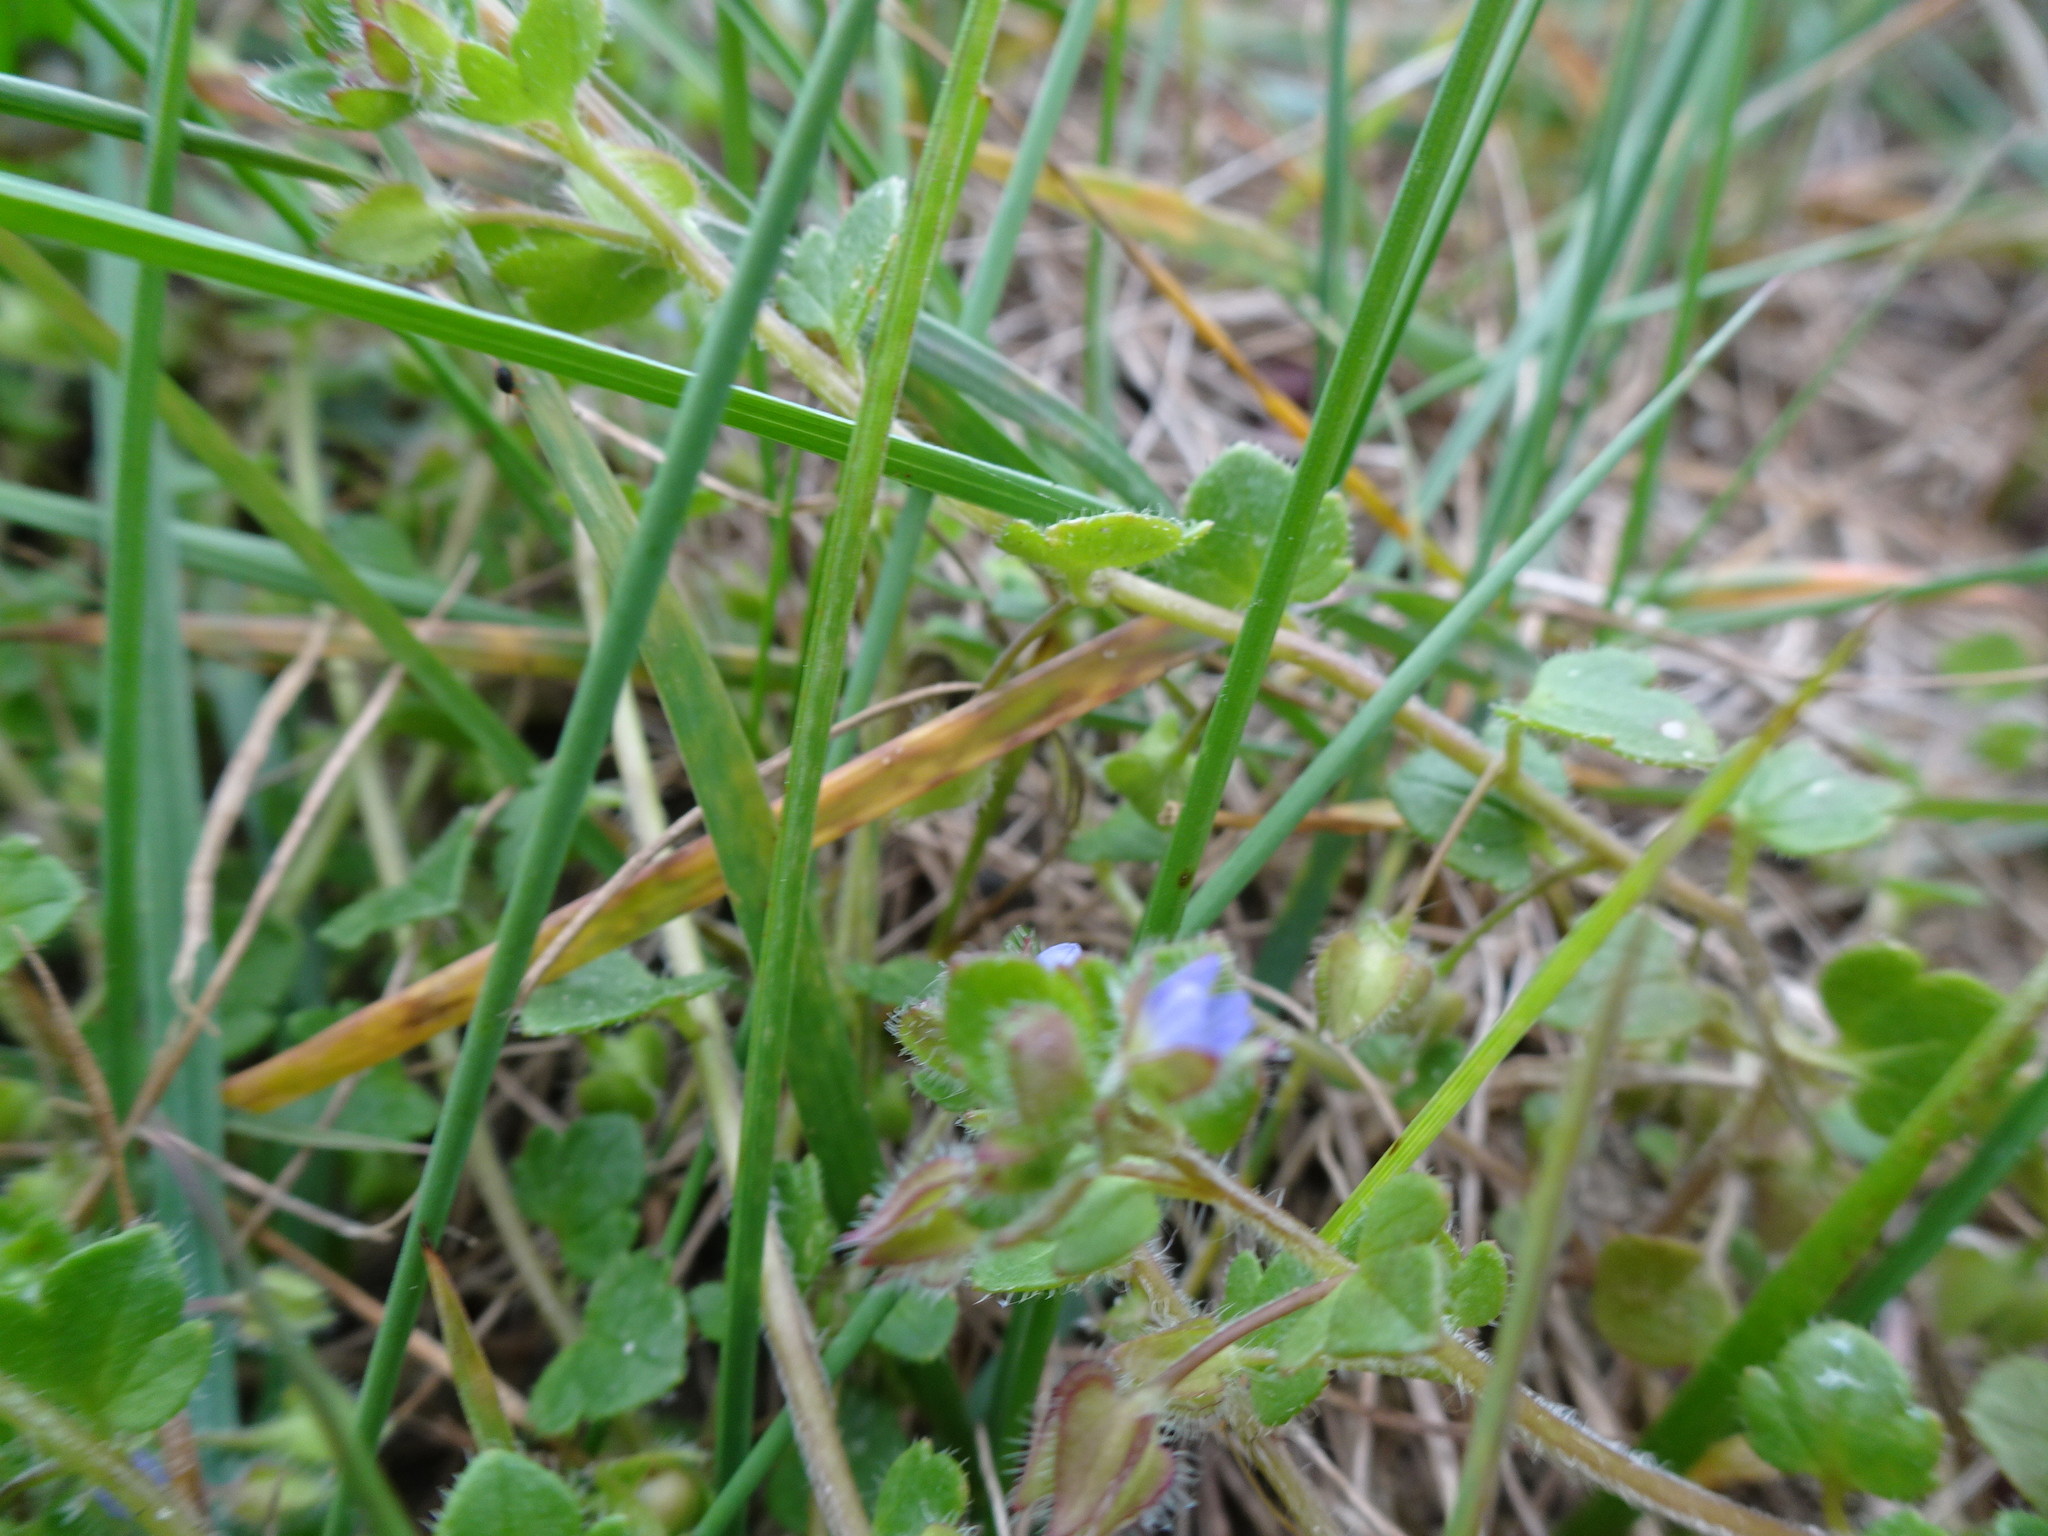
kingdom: Plantae
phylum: Tracheophyta
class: Magnoliopsida
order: Lamiales
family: Plantaginaceae
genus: Veronica
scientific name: Veronica hederifolia
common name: Ivy-leaved speedwell
